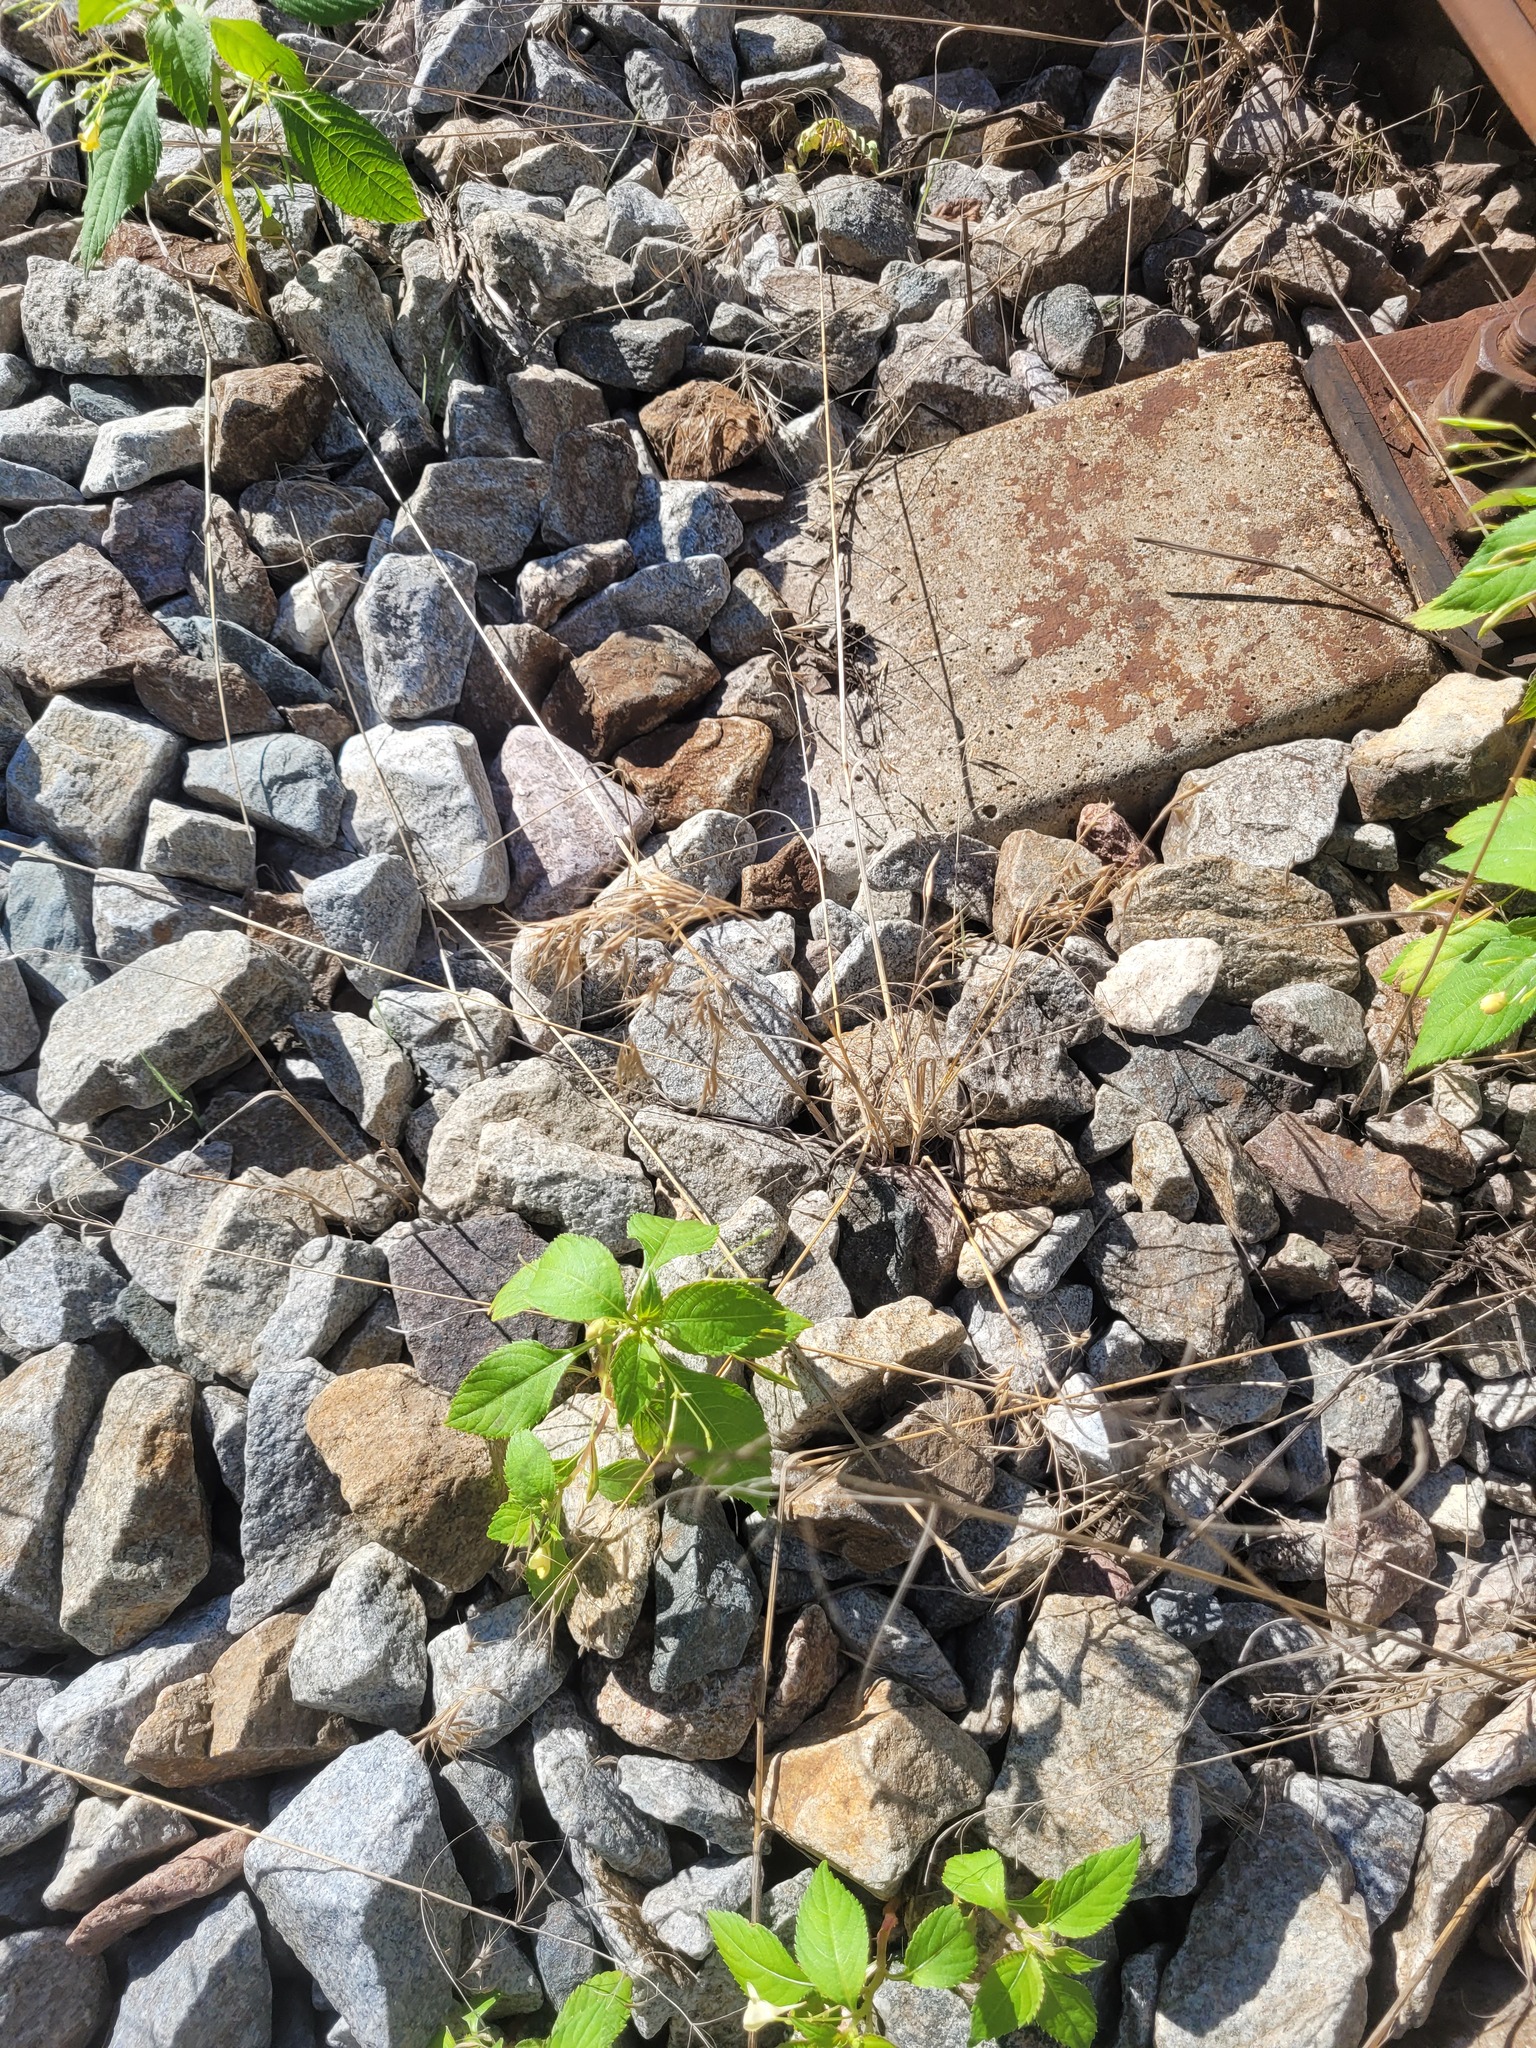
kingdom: Plantae
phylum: Tracheophyta
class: Liliopsida
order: Poales
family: Poaceae
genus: Bromus
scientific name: Bromus tectorum
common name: Cheatgrass
